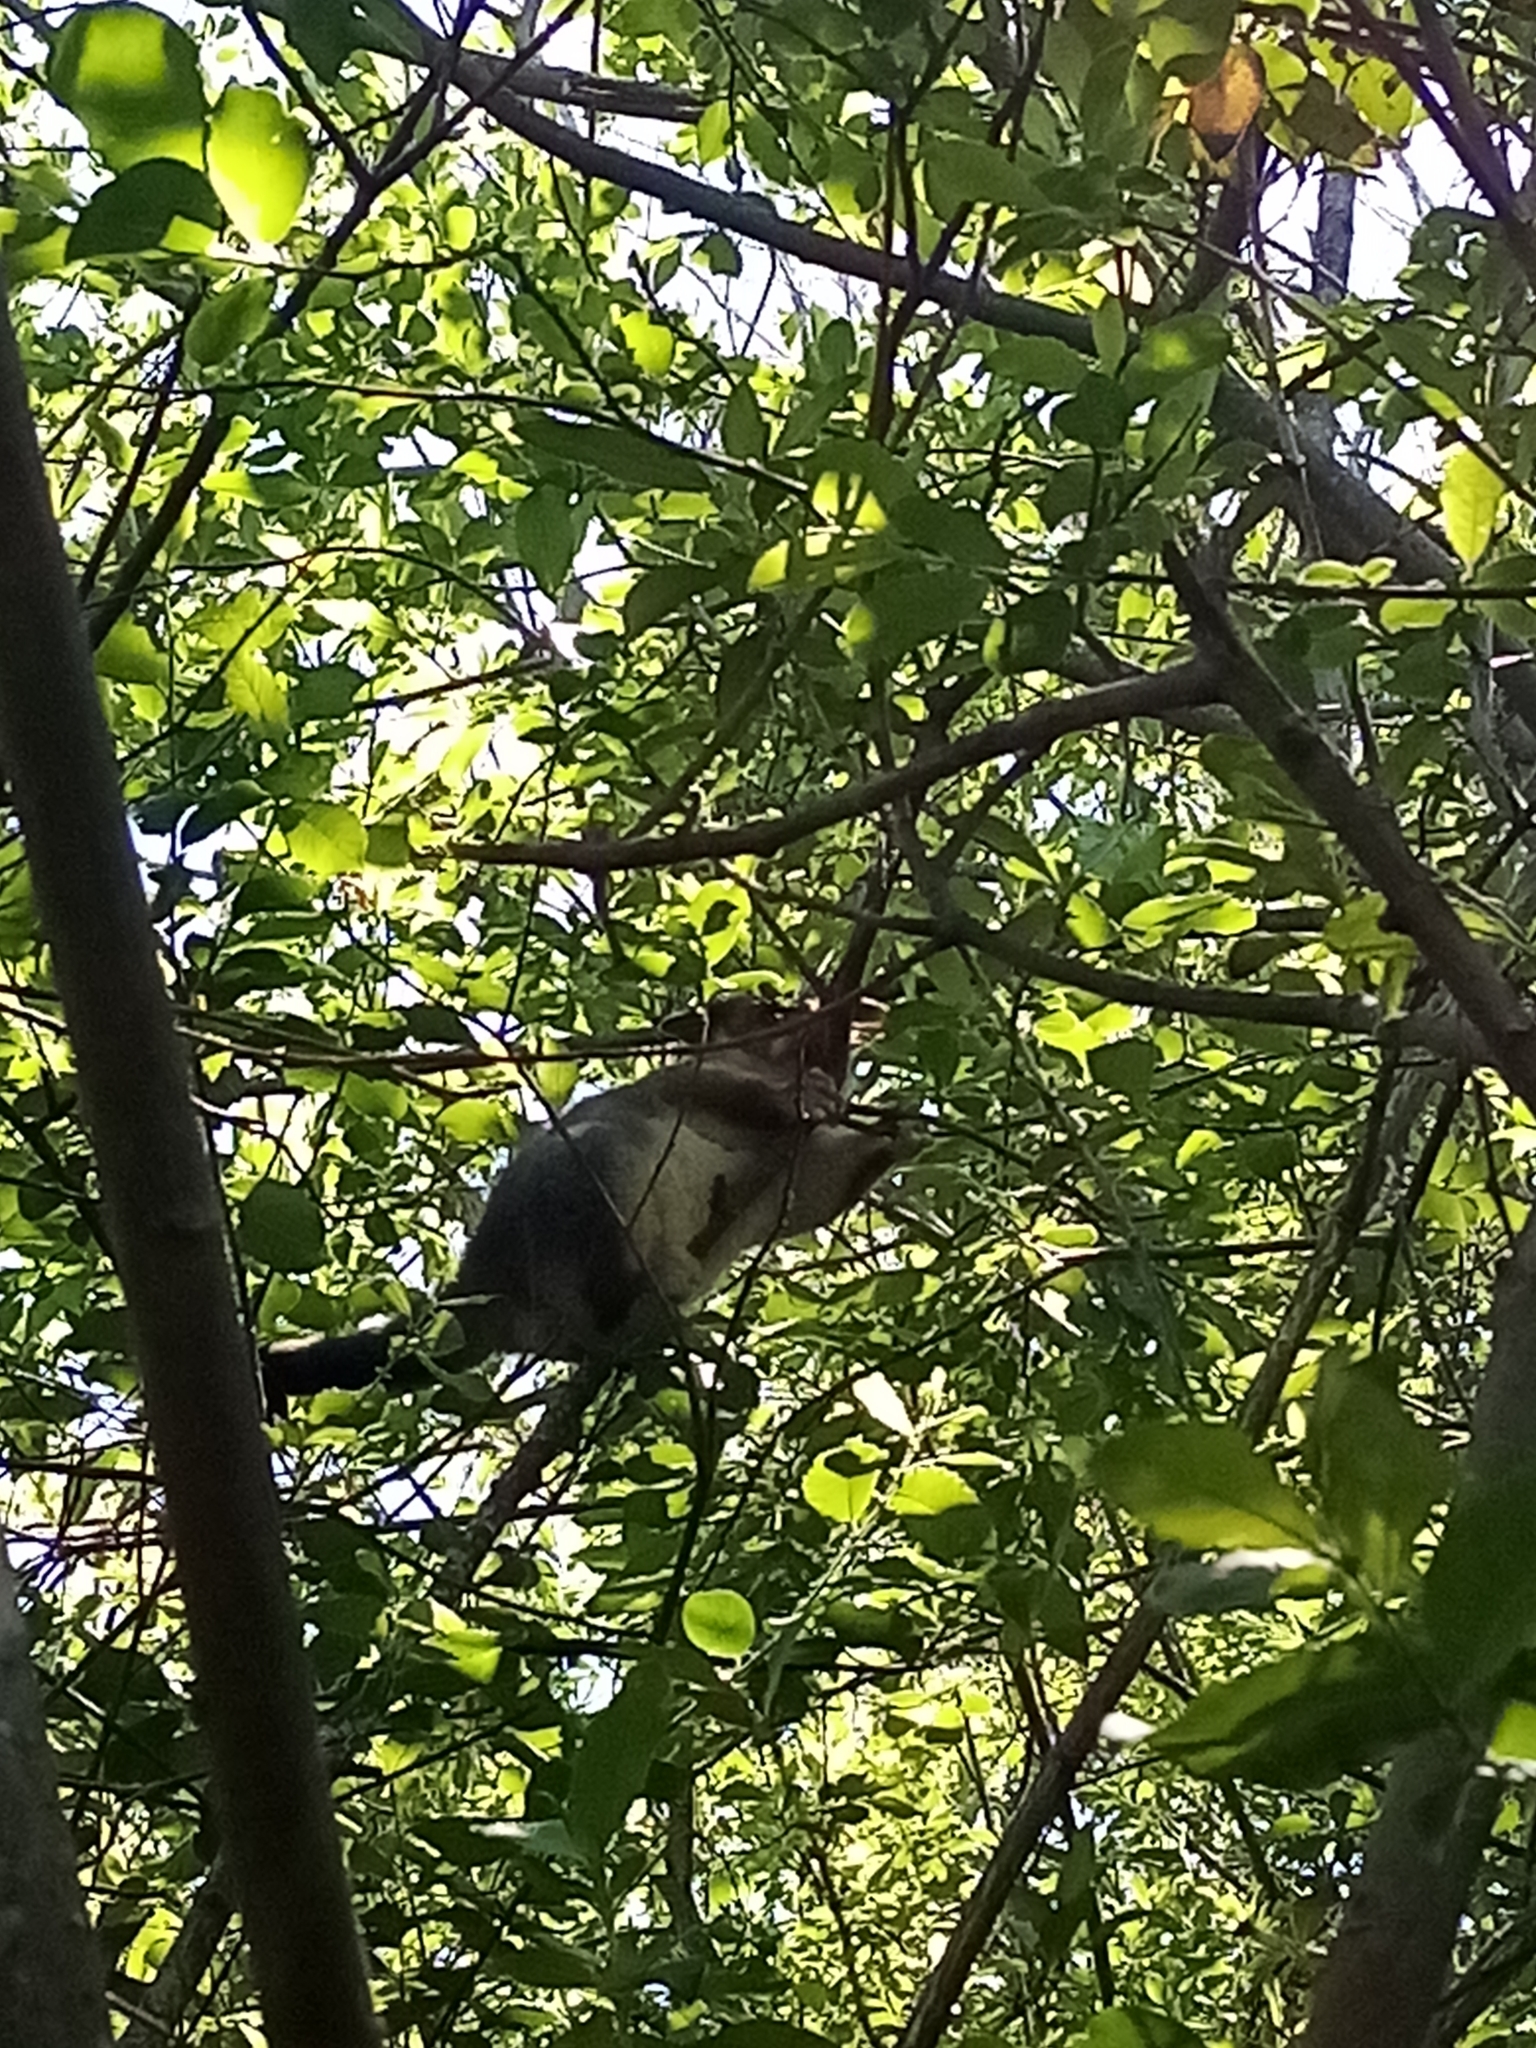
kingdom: Animalia
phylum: Chordata
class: Mammalia
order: Diprotodontia
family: Phalangeridae
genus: Trichosurus
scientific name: Trichosurus vulpecula
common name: Common brushtail
